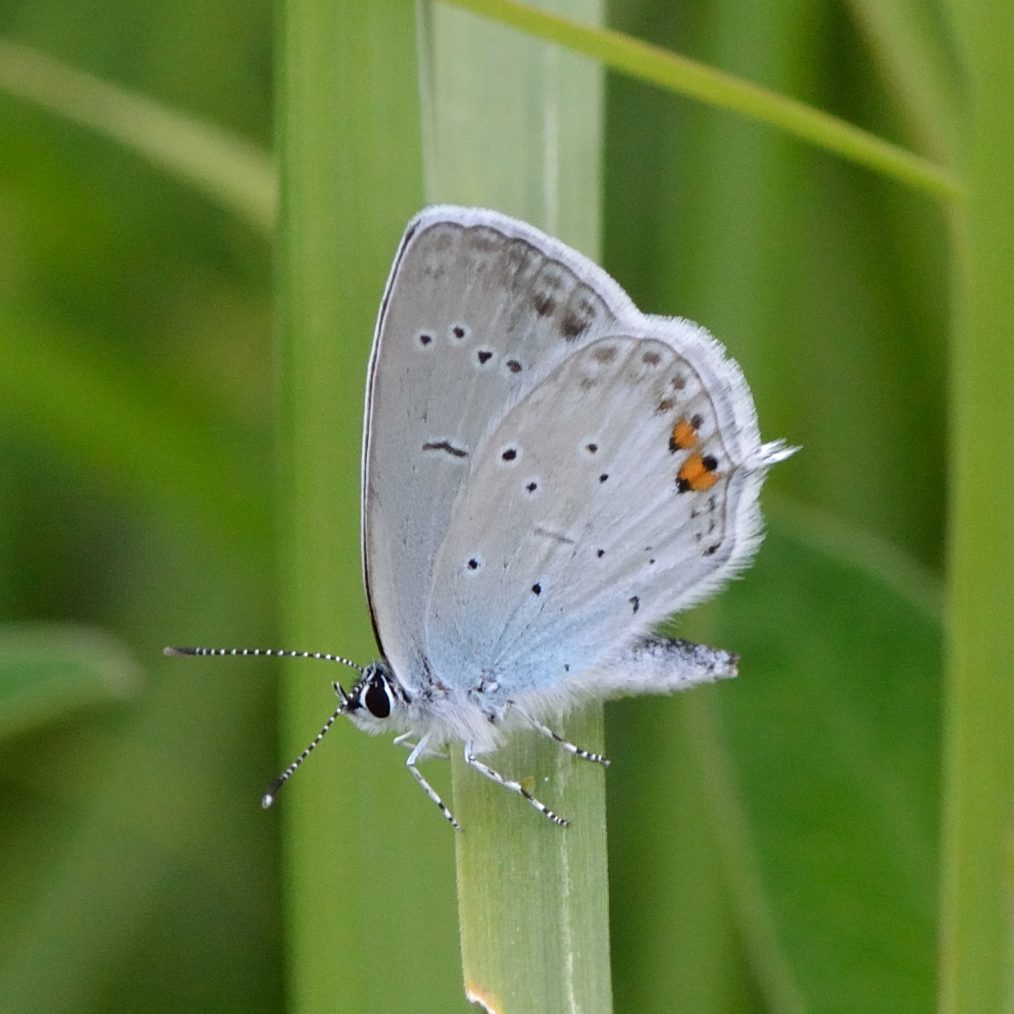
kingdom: Animalia
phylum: Arthropoda
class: Insecta
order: Lepidoptera
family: Lycaenidae
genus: Elkalyce
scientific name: Elkalyce argiades
